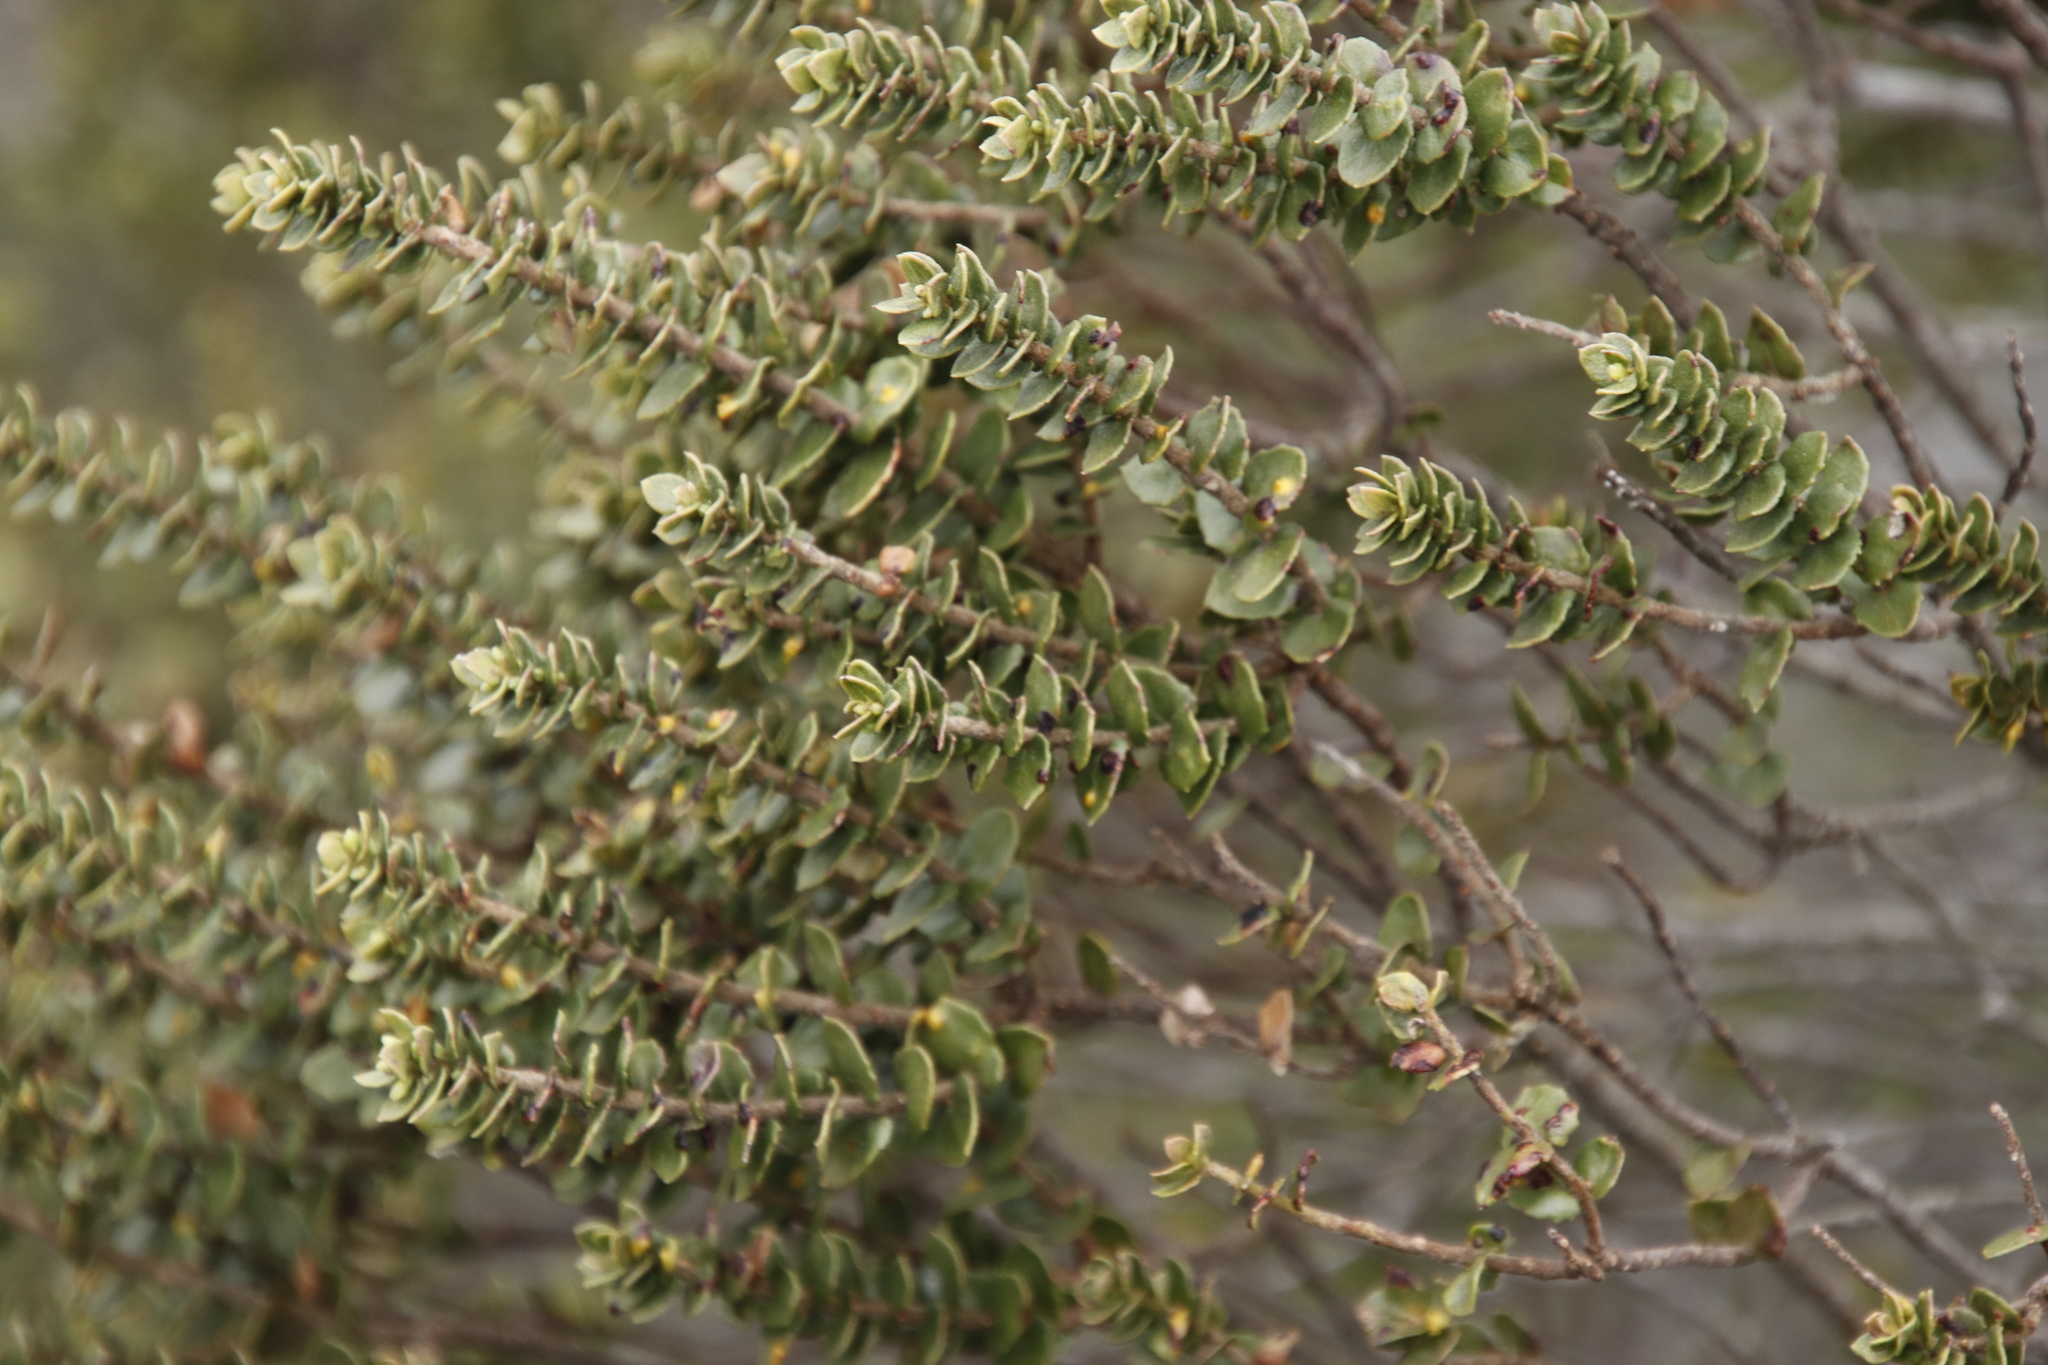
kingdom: Plantae
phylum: Tracheophyta
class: Magnoliopsida
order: Fagales
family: Myricaceae
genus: Morella
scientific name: Morella cordifolia
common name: Waxberry
